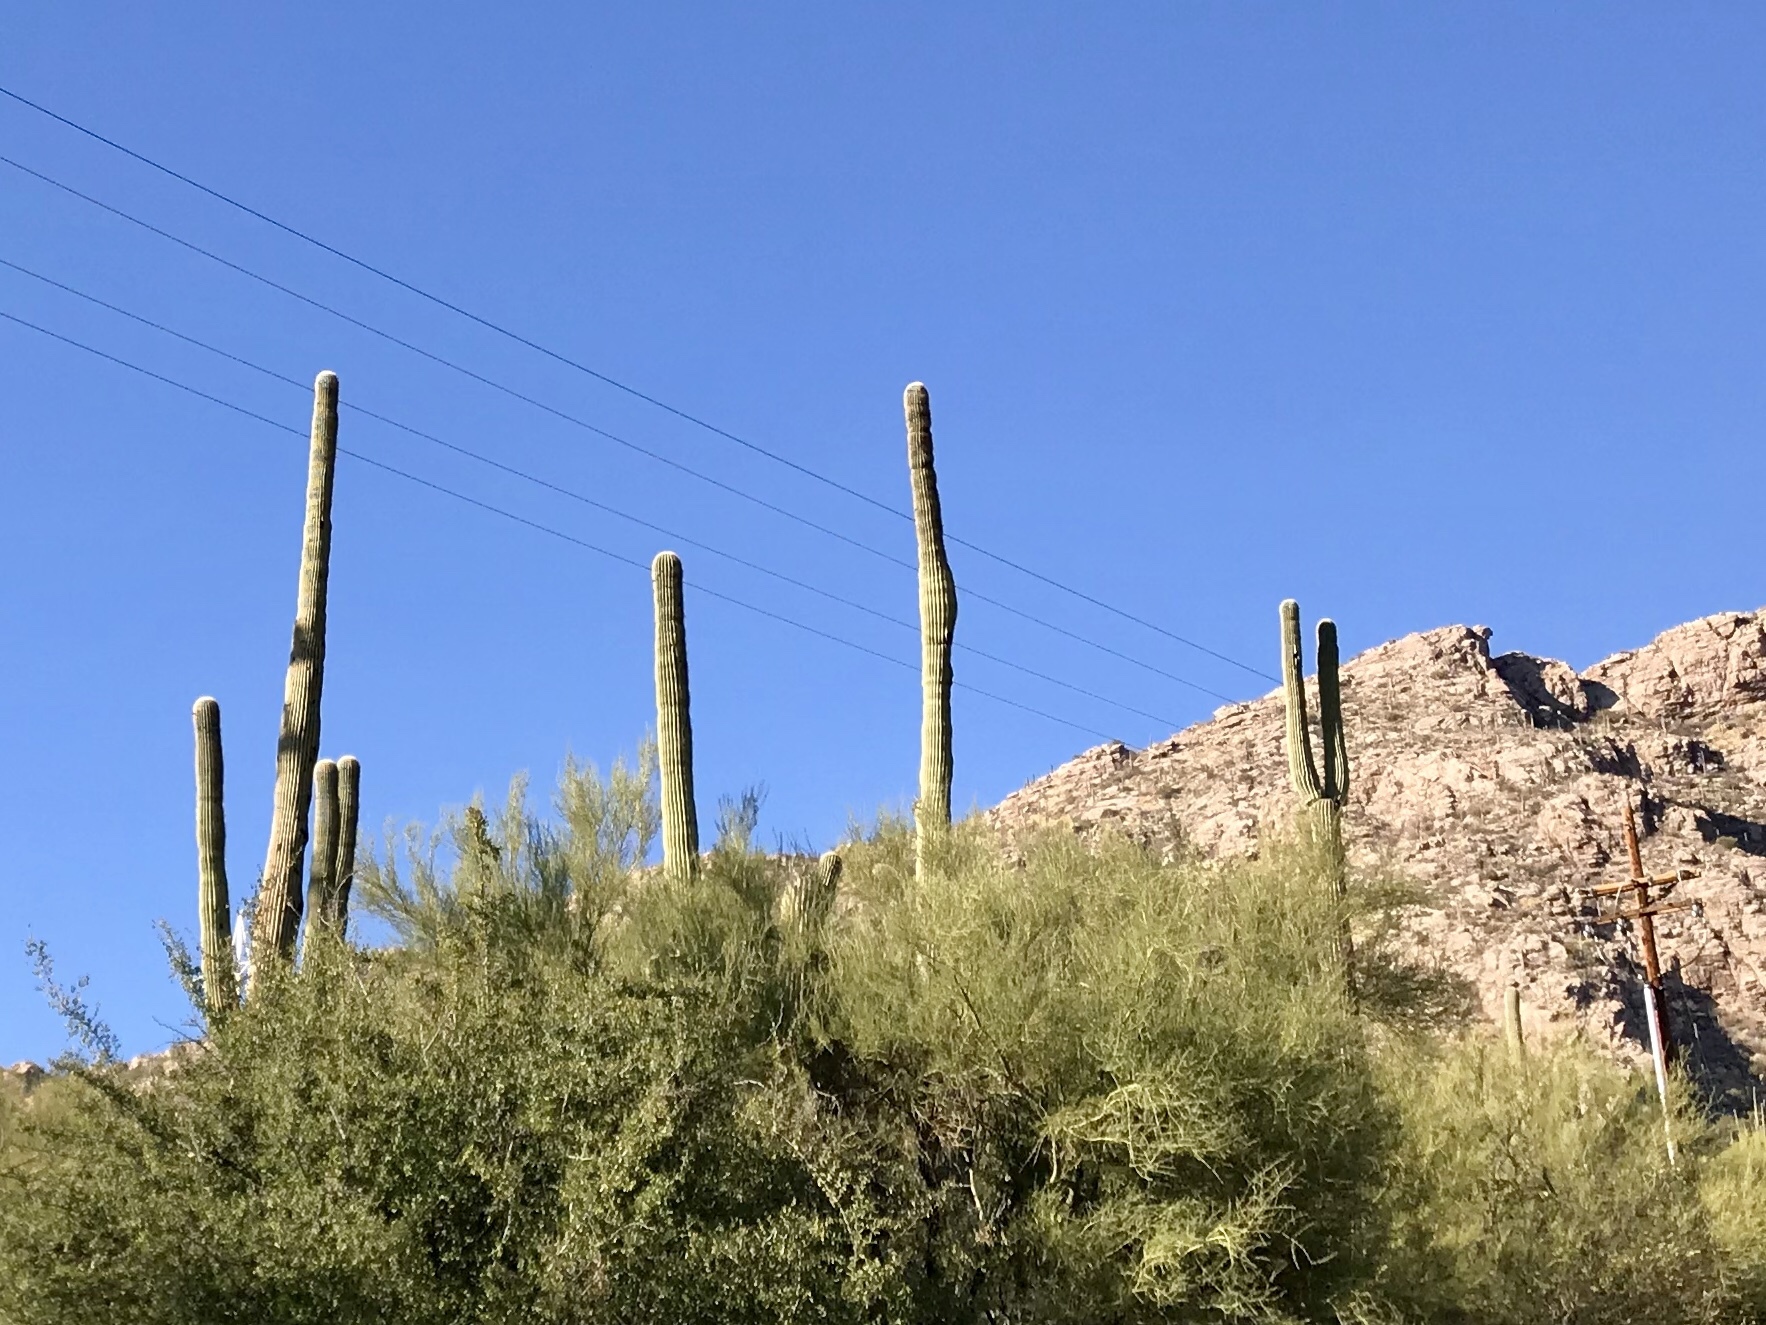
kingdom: Plantae
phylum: Tracheophyta
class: Magnoliopsida
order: Caryophyllales
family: Cactaceae
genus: Carnegiea
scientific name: Carnegiea gigantea
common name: Saguaro
